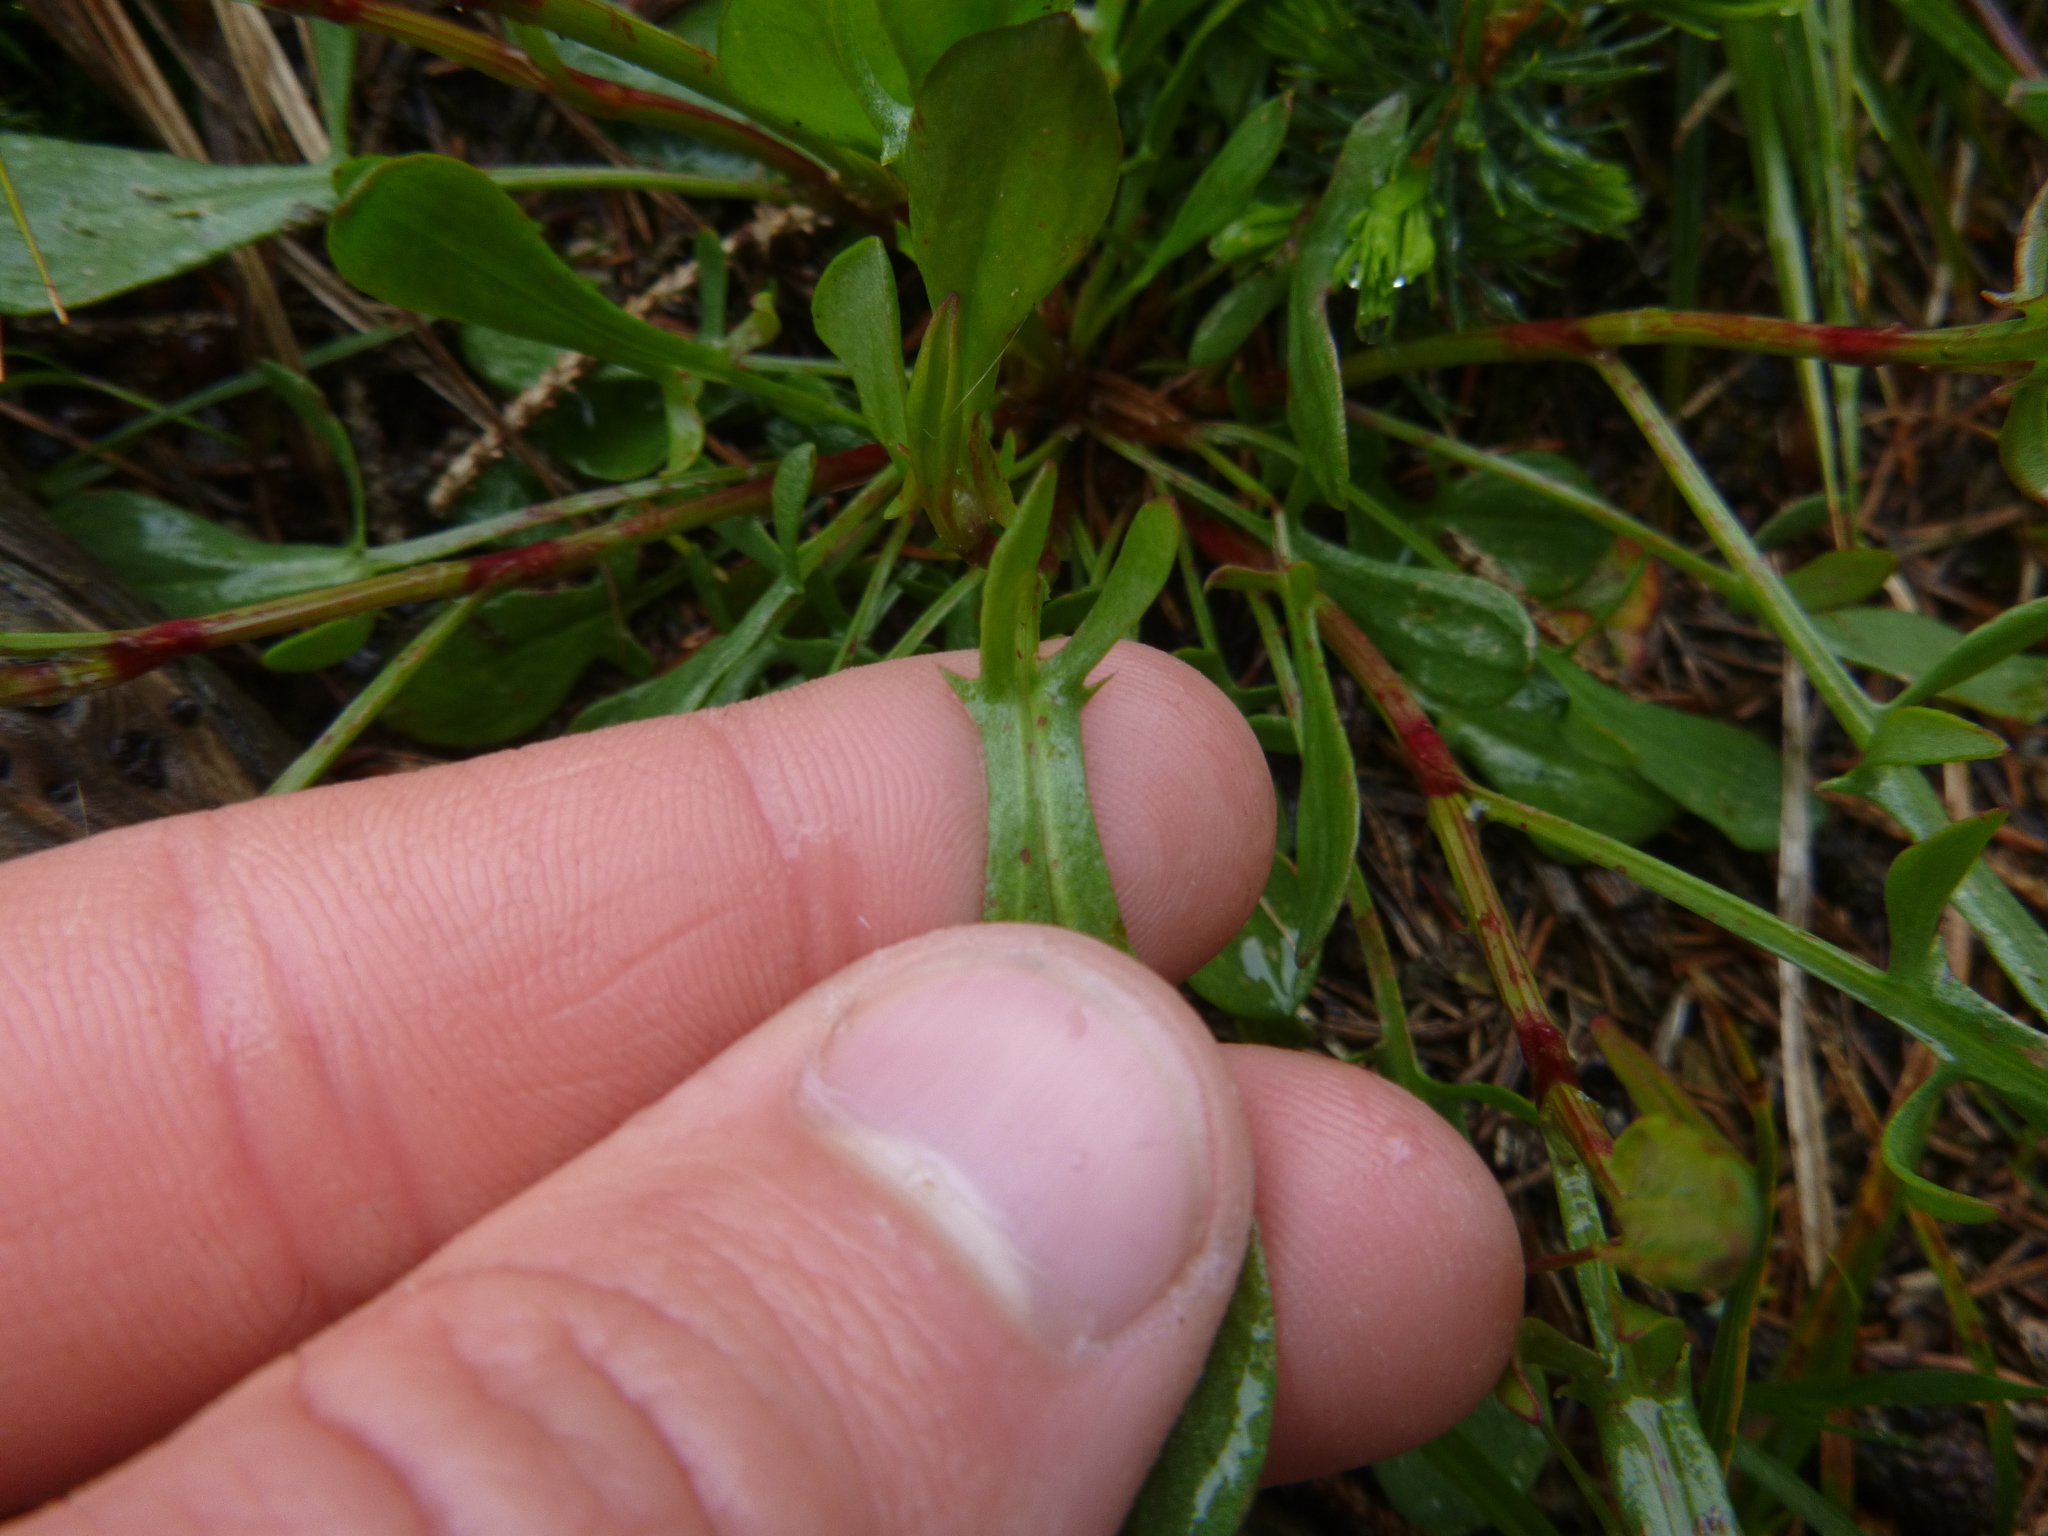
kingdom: Plantae
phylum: Tracheophyta
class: Magnoliopsida
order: Caryophyllales
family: Polygonaceae
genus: Rumex
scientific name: Rumex acetosella
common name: Common sheep sorrel
